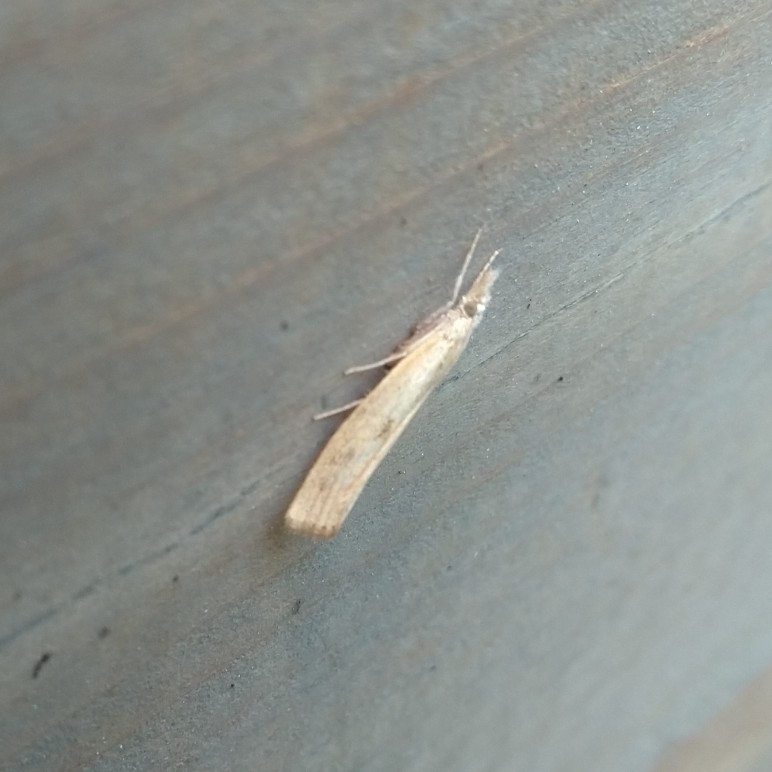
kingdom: Animalia
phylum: Arthropoda
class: Insecta
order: Lepidoptera
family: Crambidae
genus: Agriphila
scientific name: Agriphila inquinatella
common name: Barred grass-veneer
